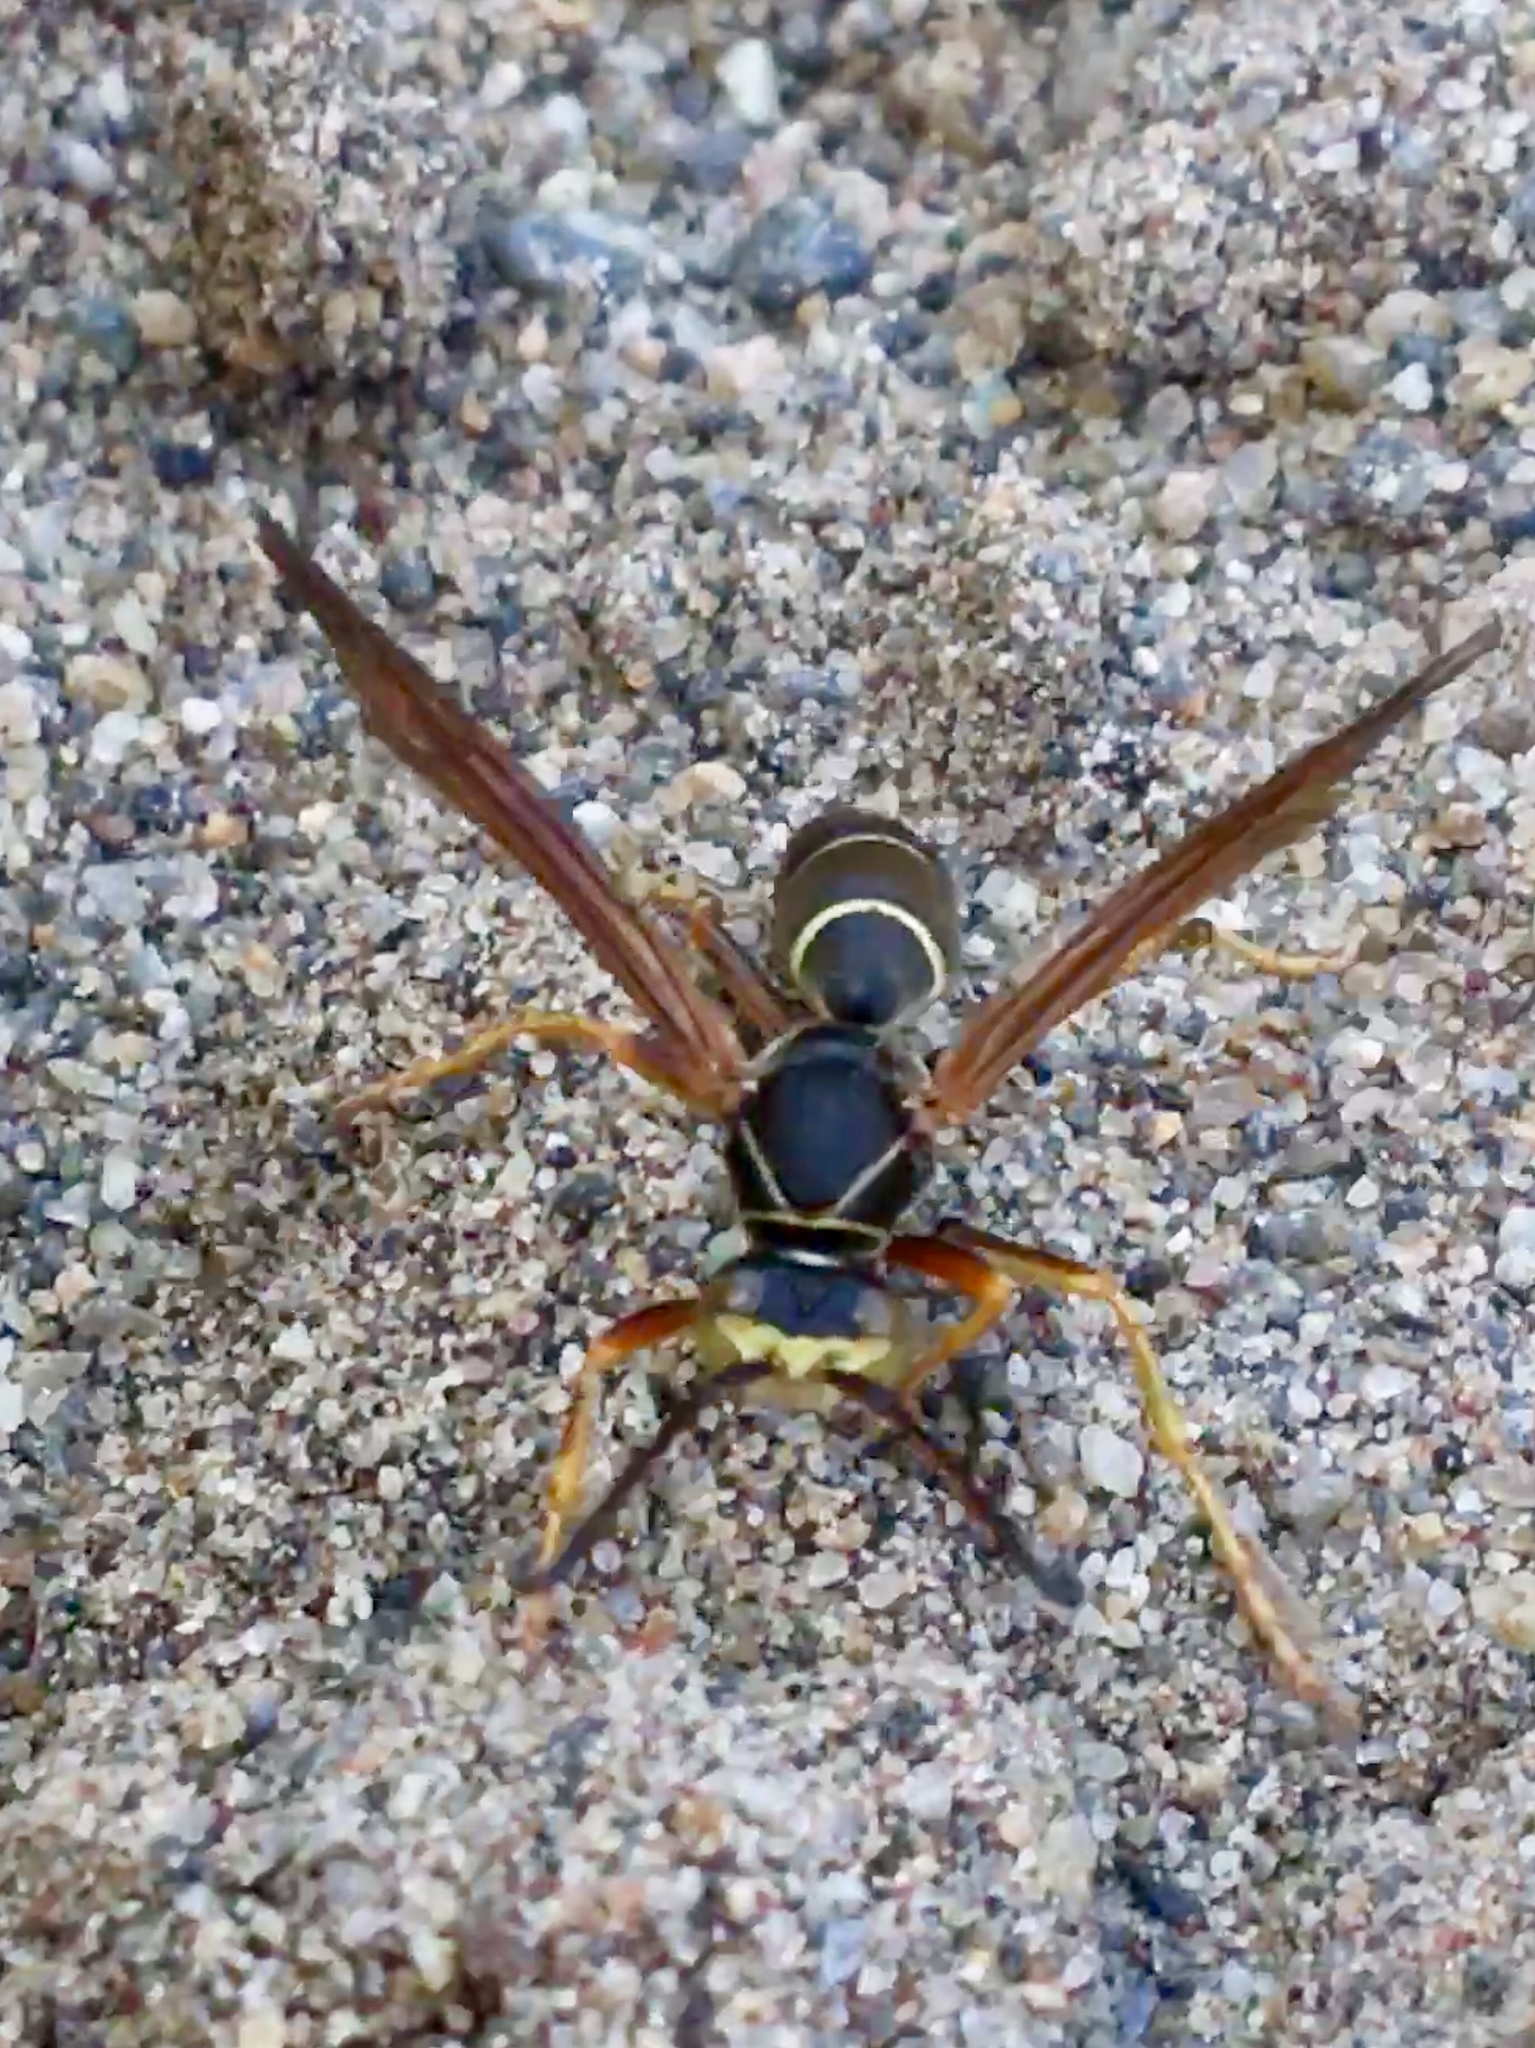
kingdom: Animalia
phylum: Arthropoda
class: Insecta
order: Hymenoptera
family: Eumenidae
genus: Polistes
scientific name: Polistes fuscatus
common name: Dark paper wasp
